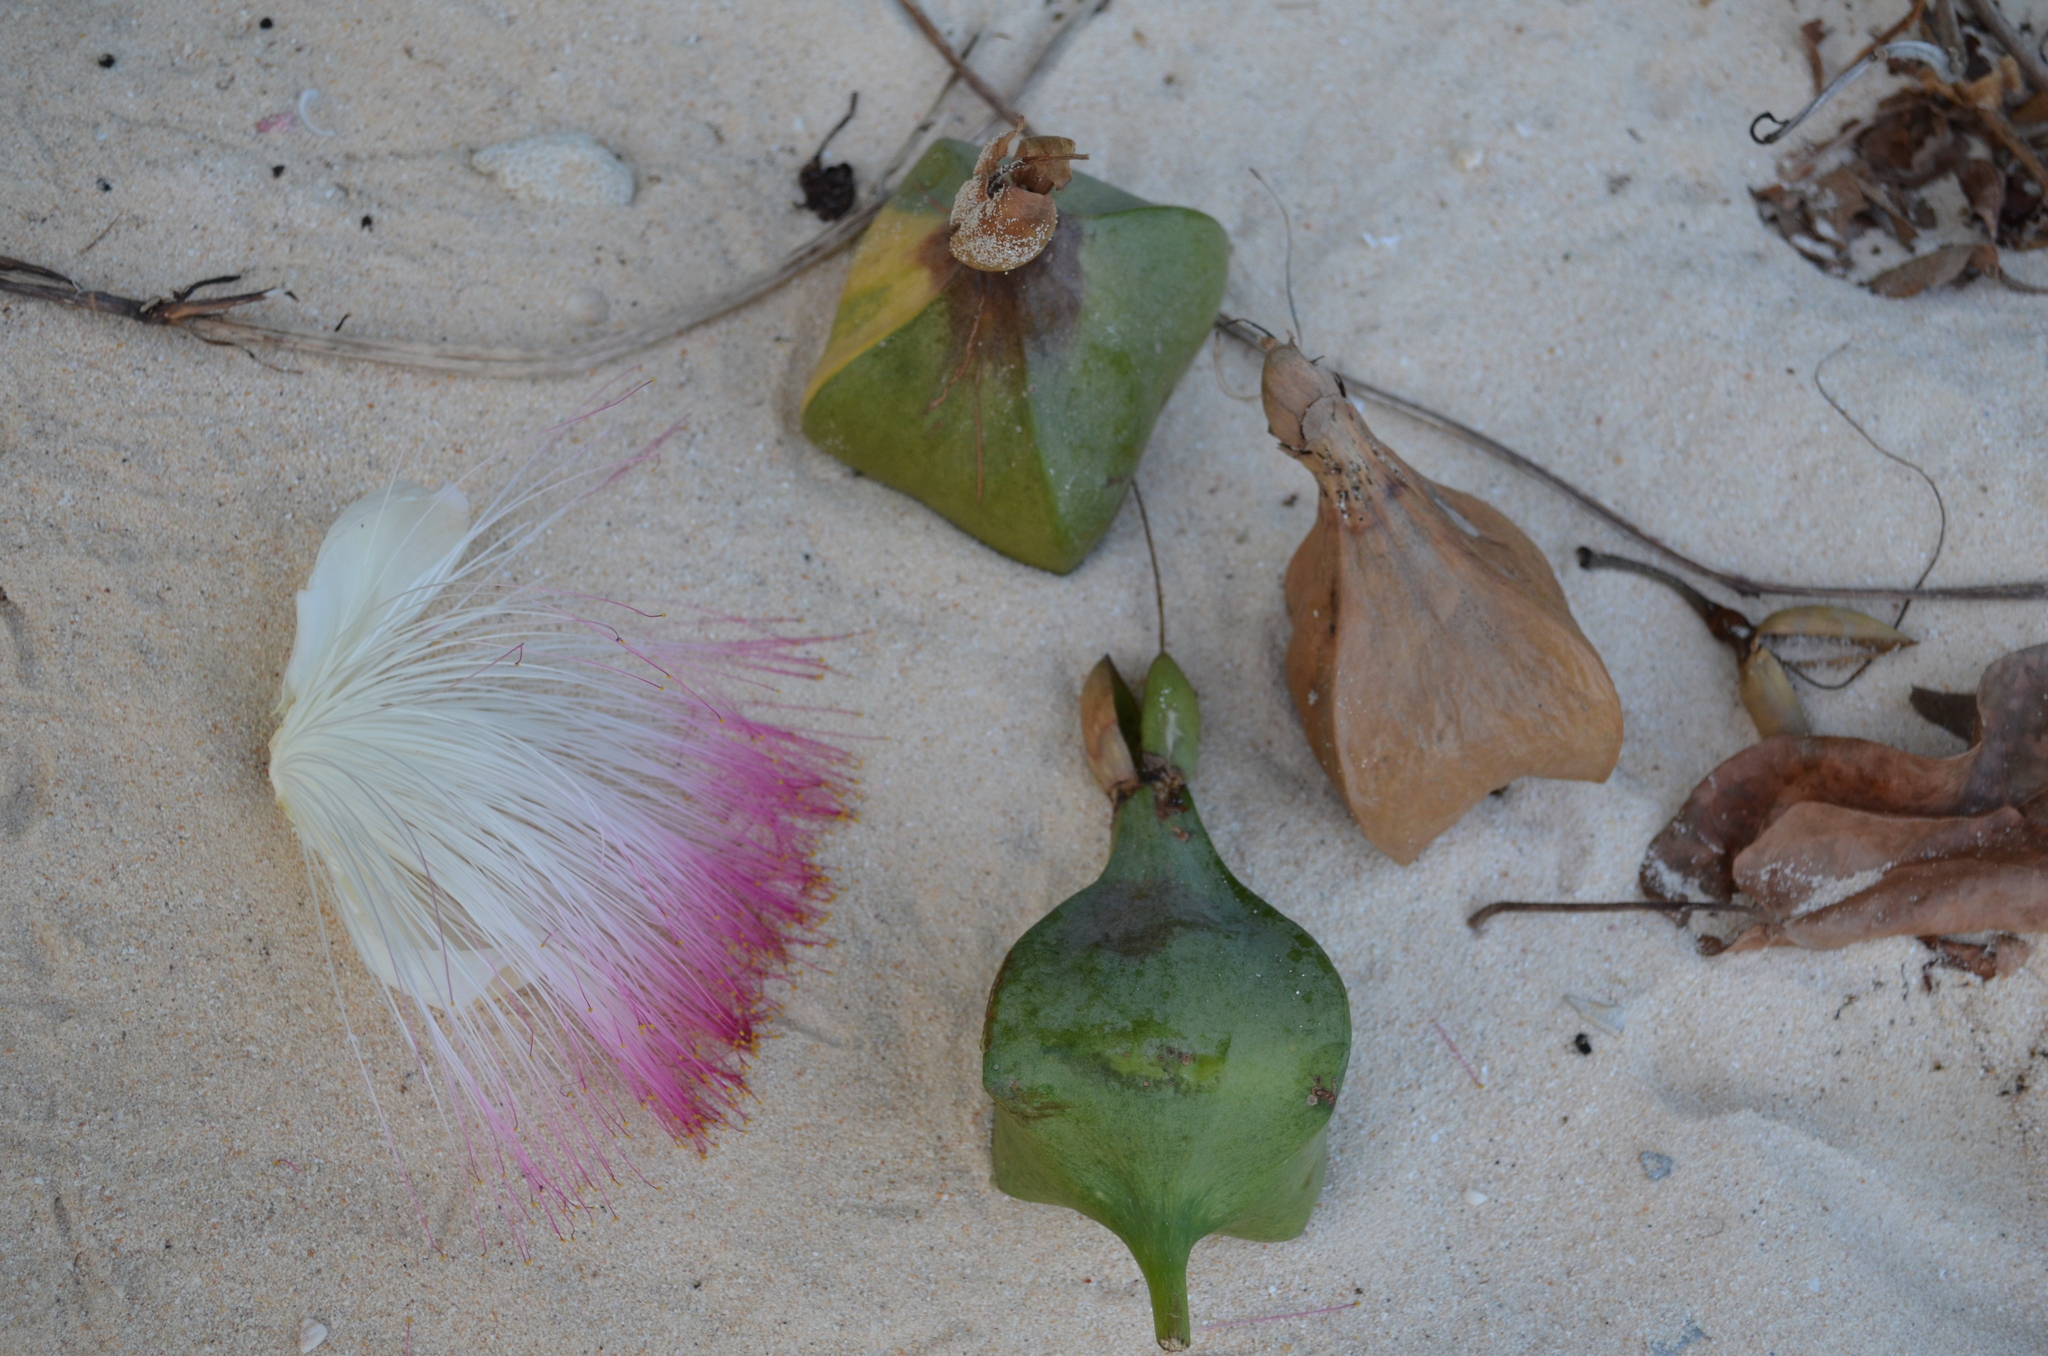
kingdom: Plantae
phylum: Tracheophyta
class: Magnoliopsida
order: Ericales
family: Lecythidaceae
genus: Barringtonia
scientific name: Barringtonia asiatica
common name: Mango-pine
